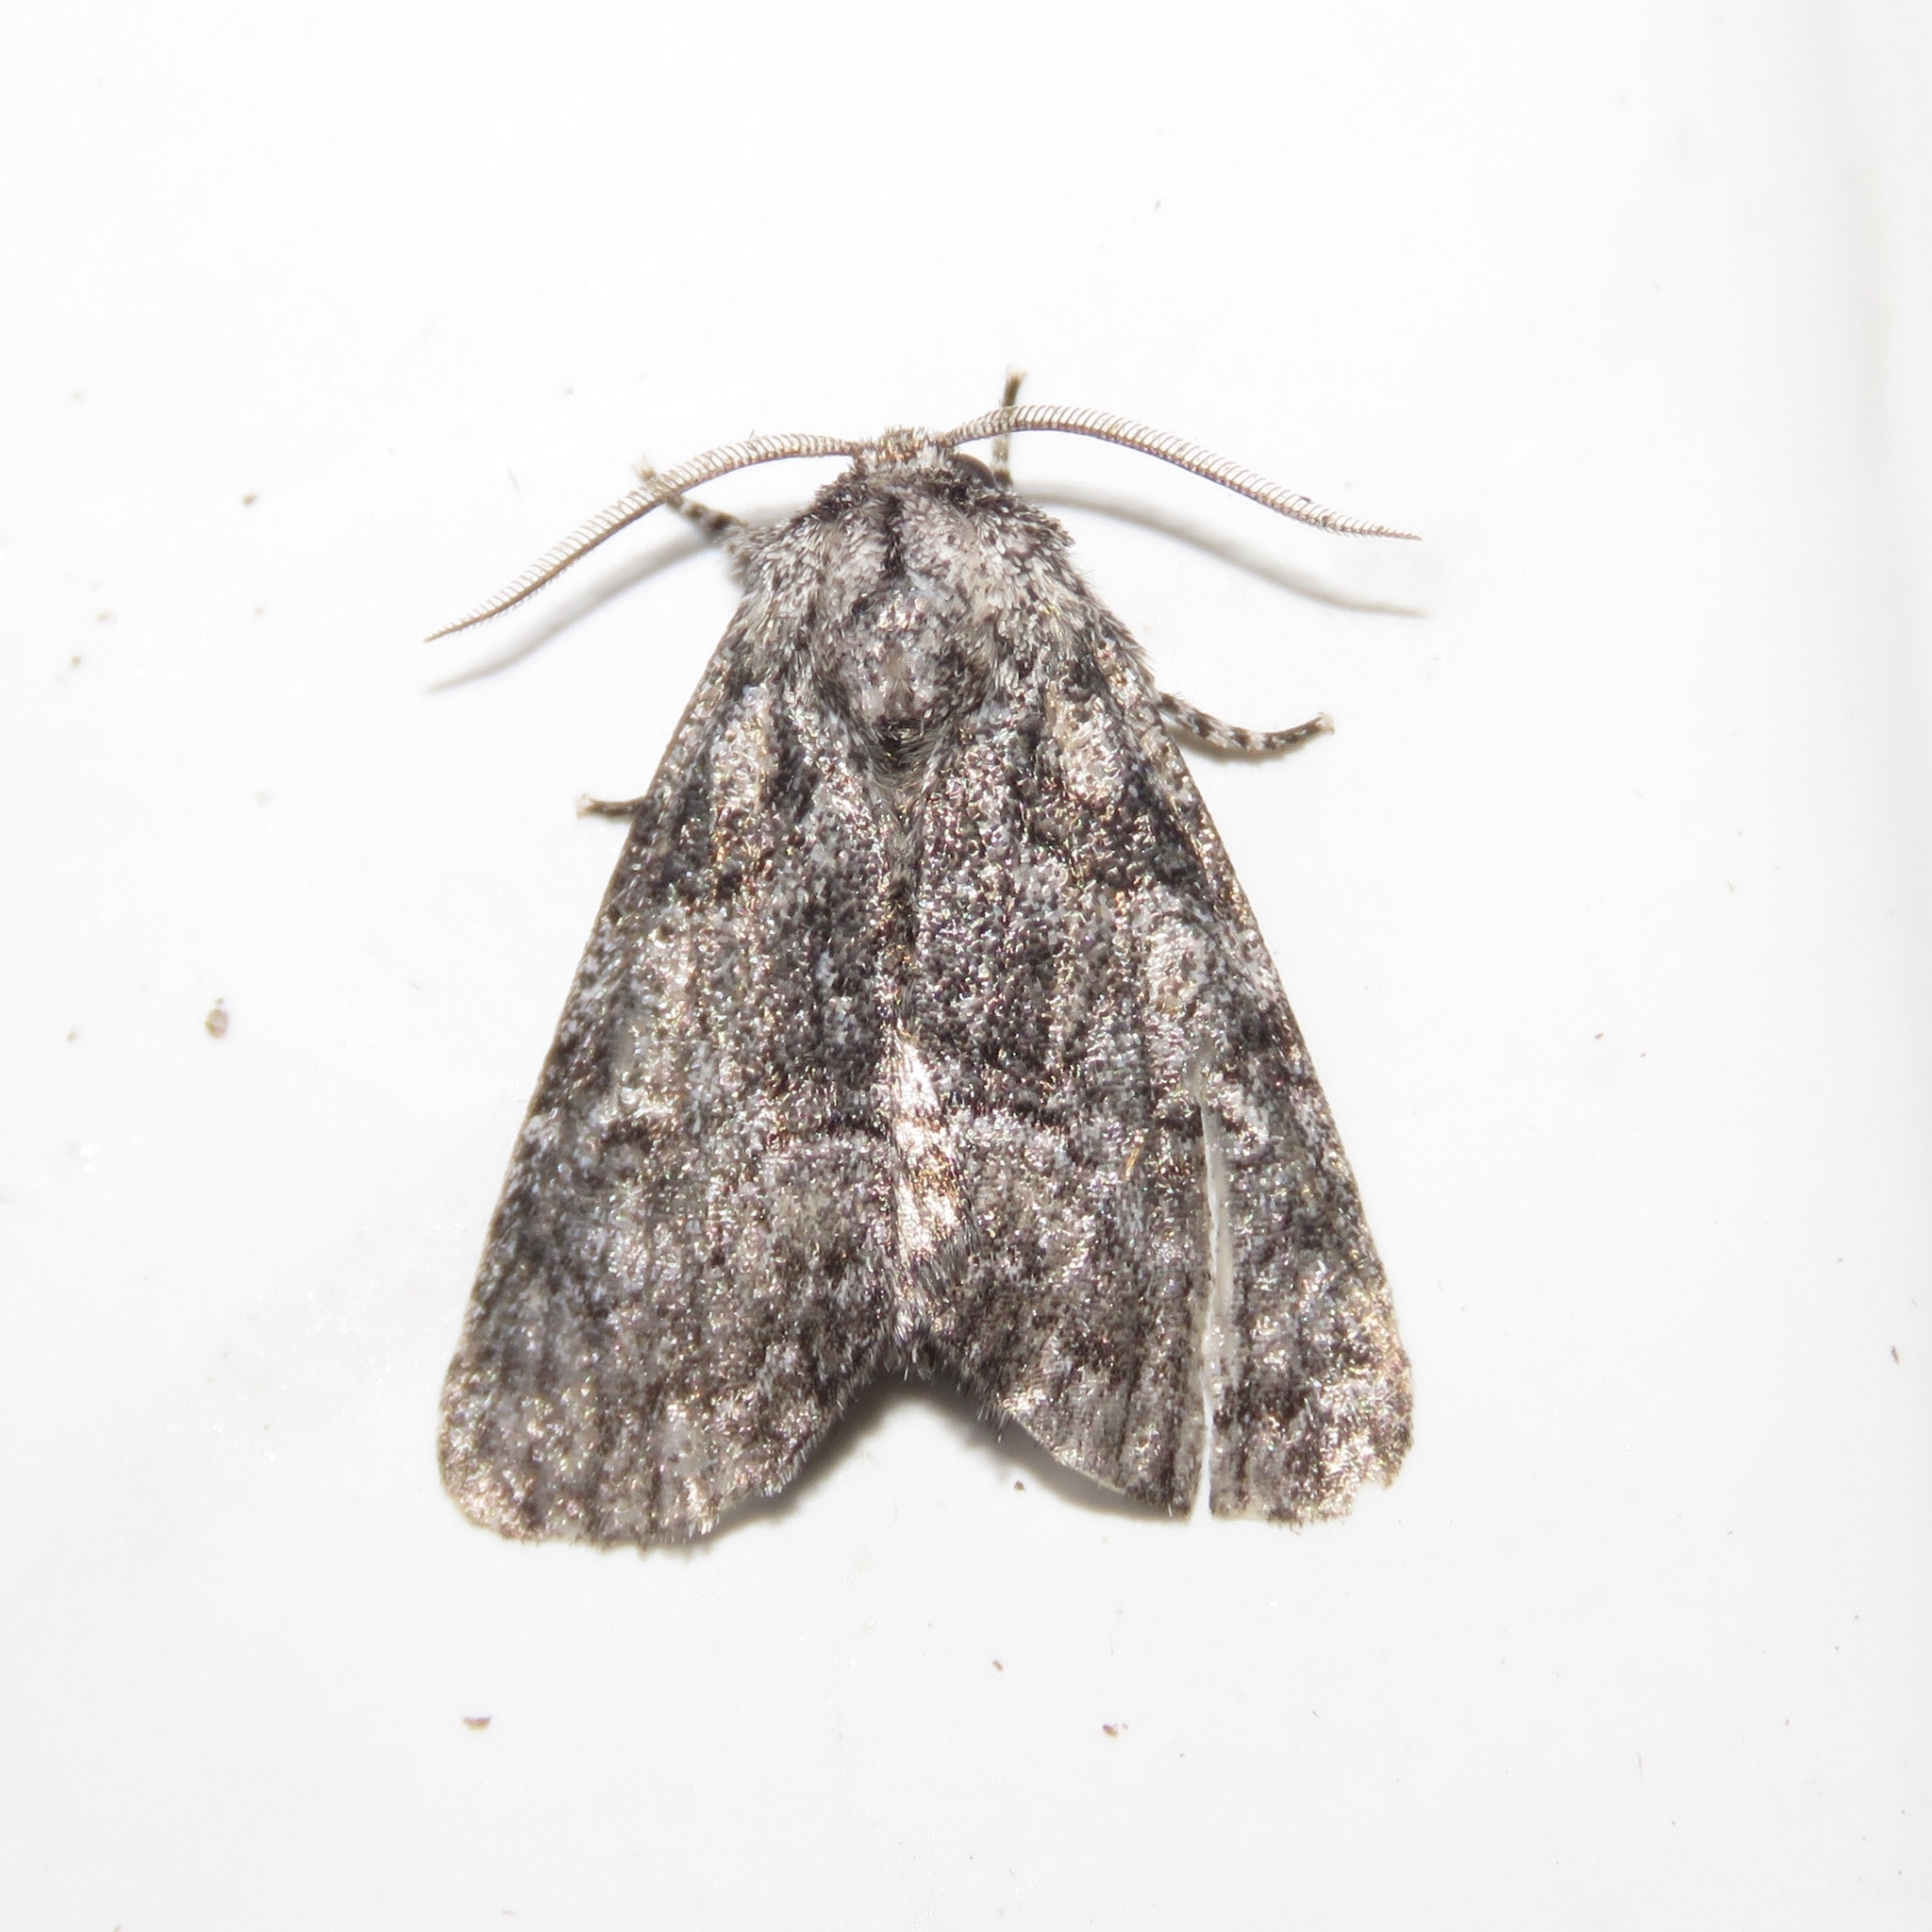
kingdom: Animalia
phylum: Arthropoda
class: Insecta
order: Lepidoptera
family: Noctuidae
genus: Raphia
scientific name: Raphia frater
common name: Brother
